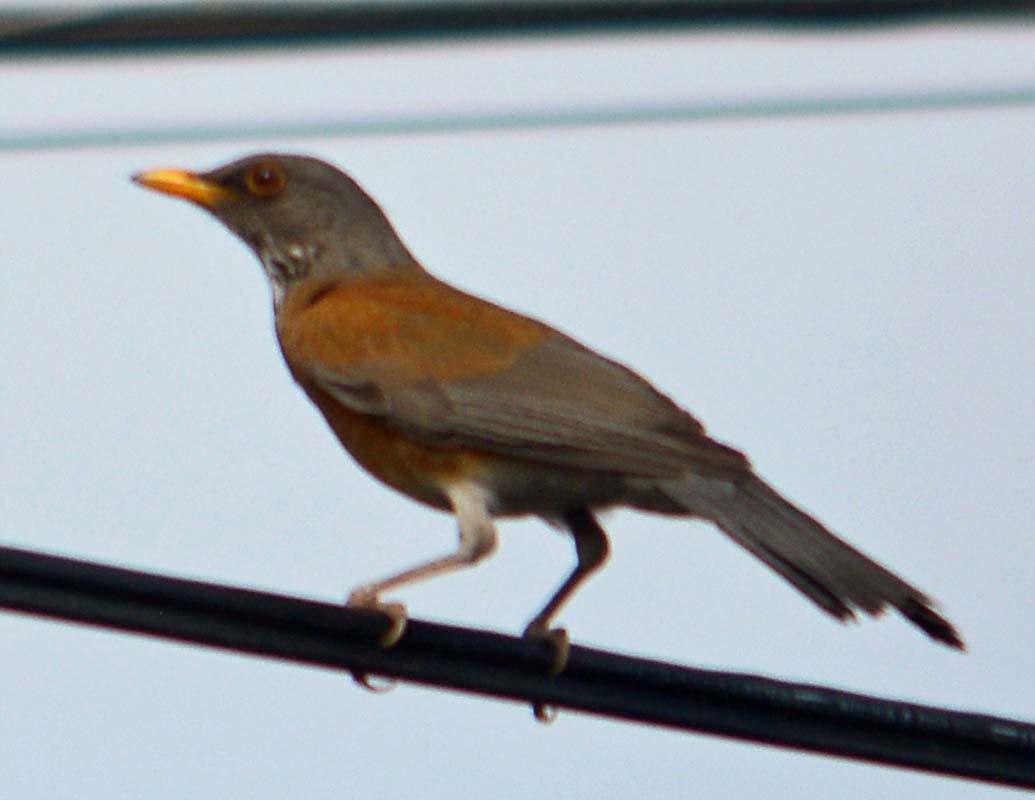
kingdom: Animalia
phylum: Chordata
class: Aves
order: Passeriformes
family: Turdidae
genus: Turdus
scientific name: Turdus rufopalliatus
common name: Rufous-backed robin
